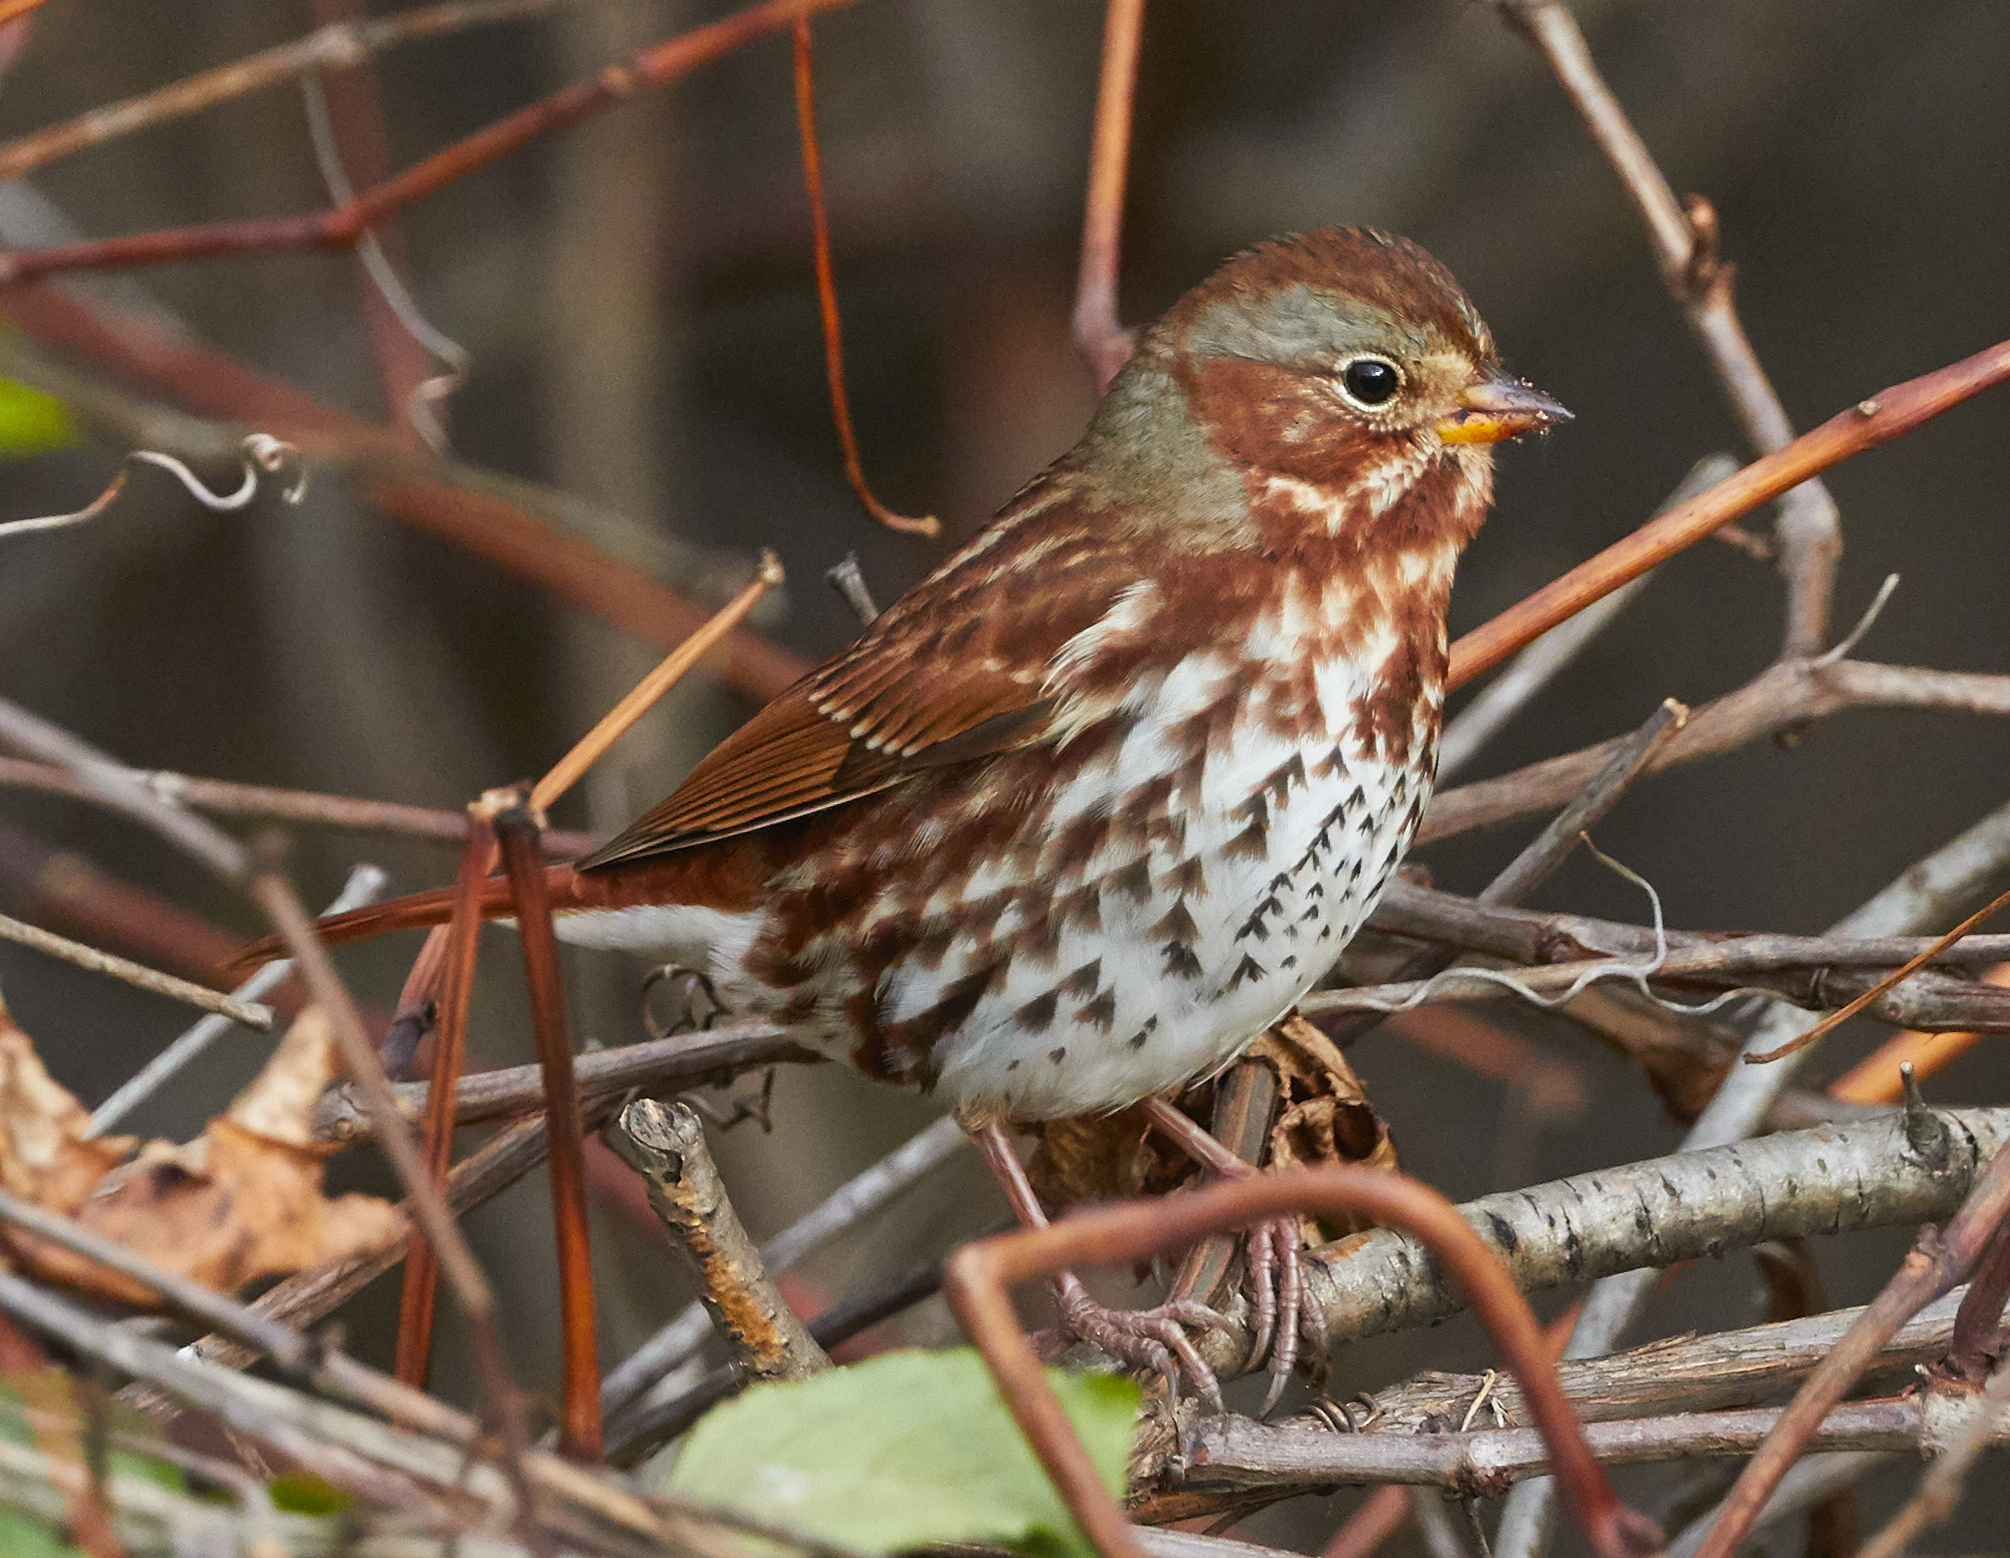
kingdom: Animalia
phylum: Chordata
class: Aves
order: Passeriformes
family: Passerellidae
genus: Passerella
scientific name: Passerella iliaca
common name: Fox sparrow
